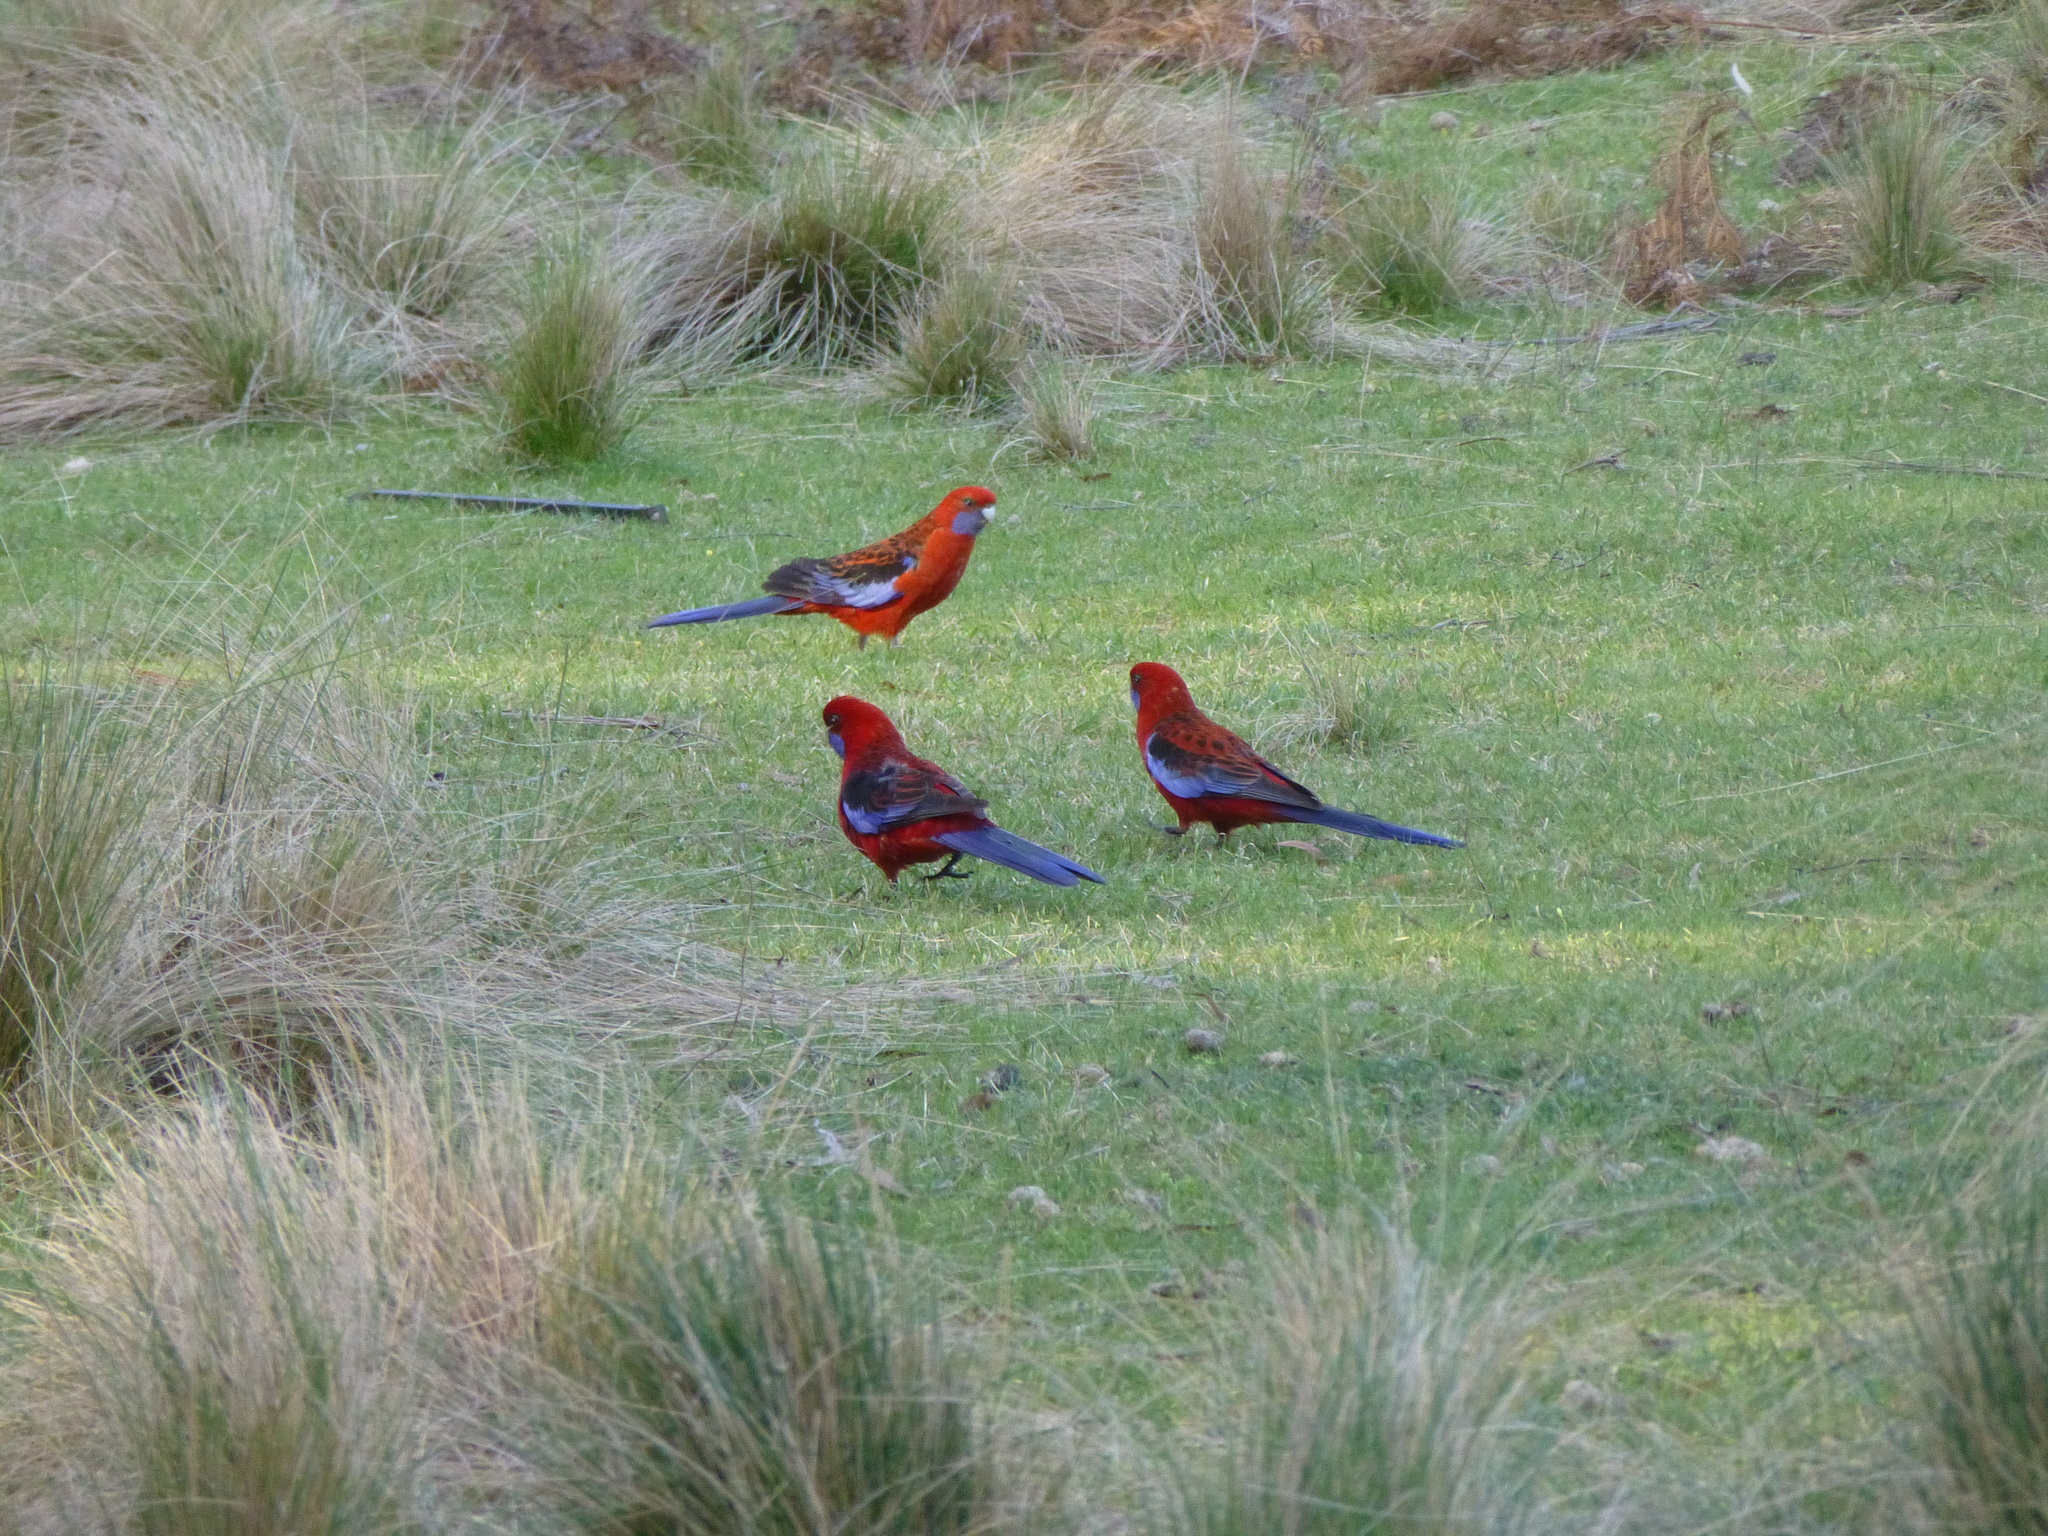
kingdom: Animalia
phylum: Chordata
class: Aves
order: Psittaciformes
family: Psittacidae
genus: Platycercus
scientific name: Platycercus elegans
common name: Crimson rosella
